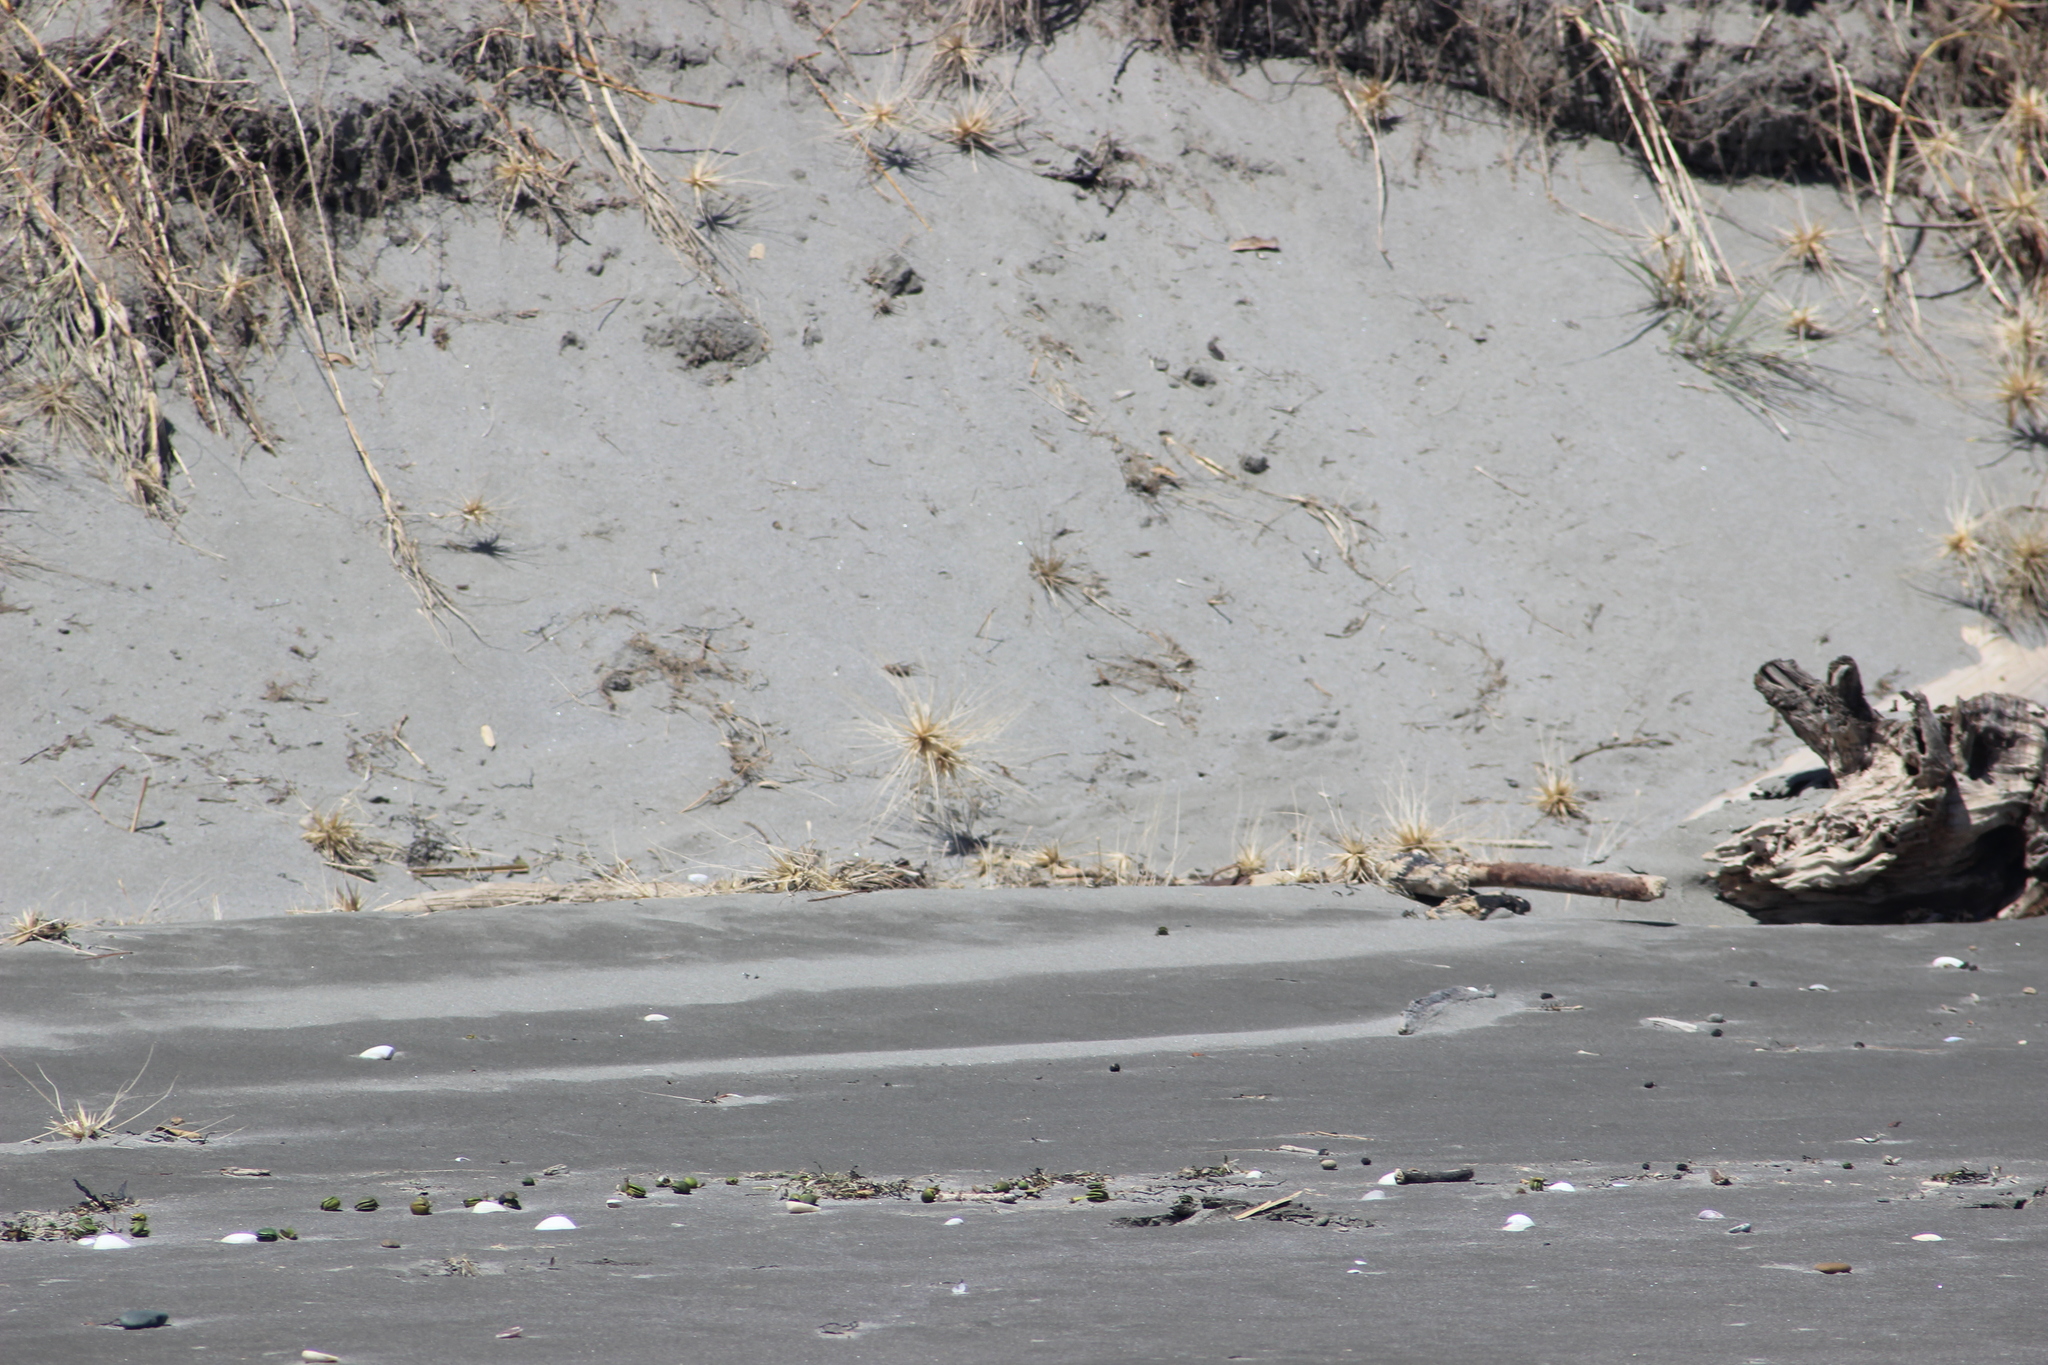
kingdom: Plantae
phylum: Tracheophyta
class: Liliopsida
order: Poales
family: Poaceae
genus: Spinifex
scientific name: Spinifex sericeus
